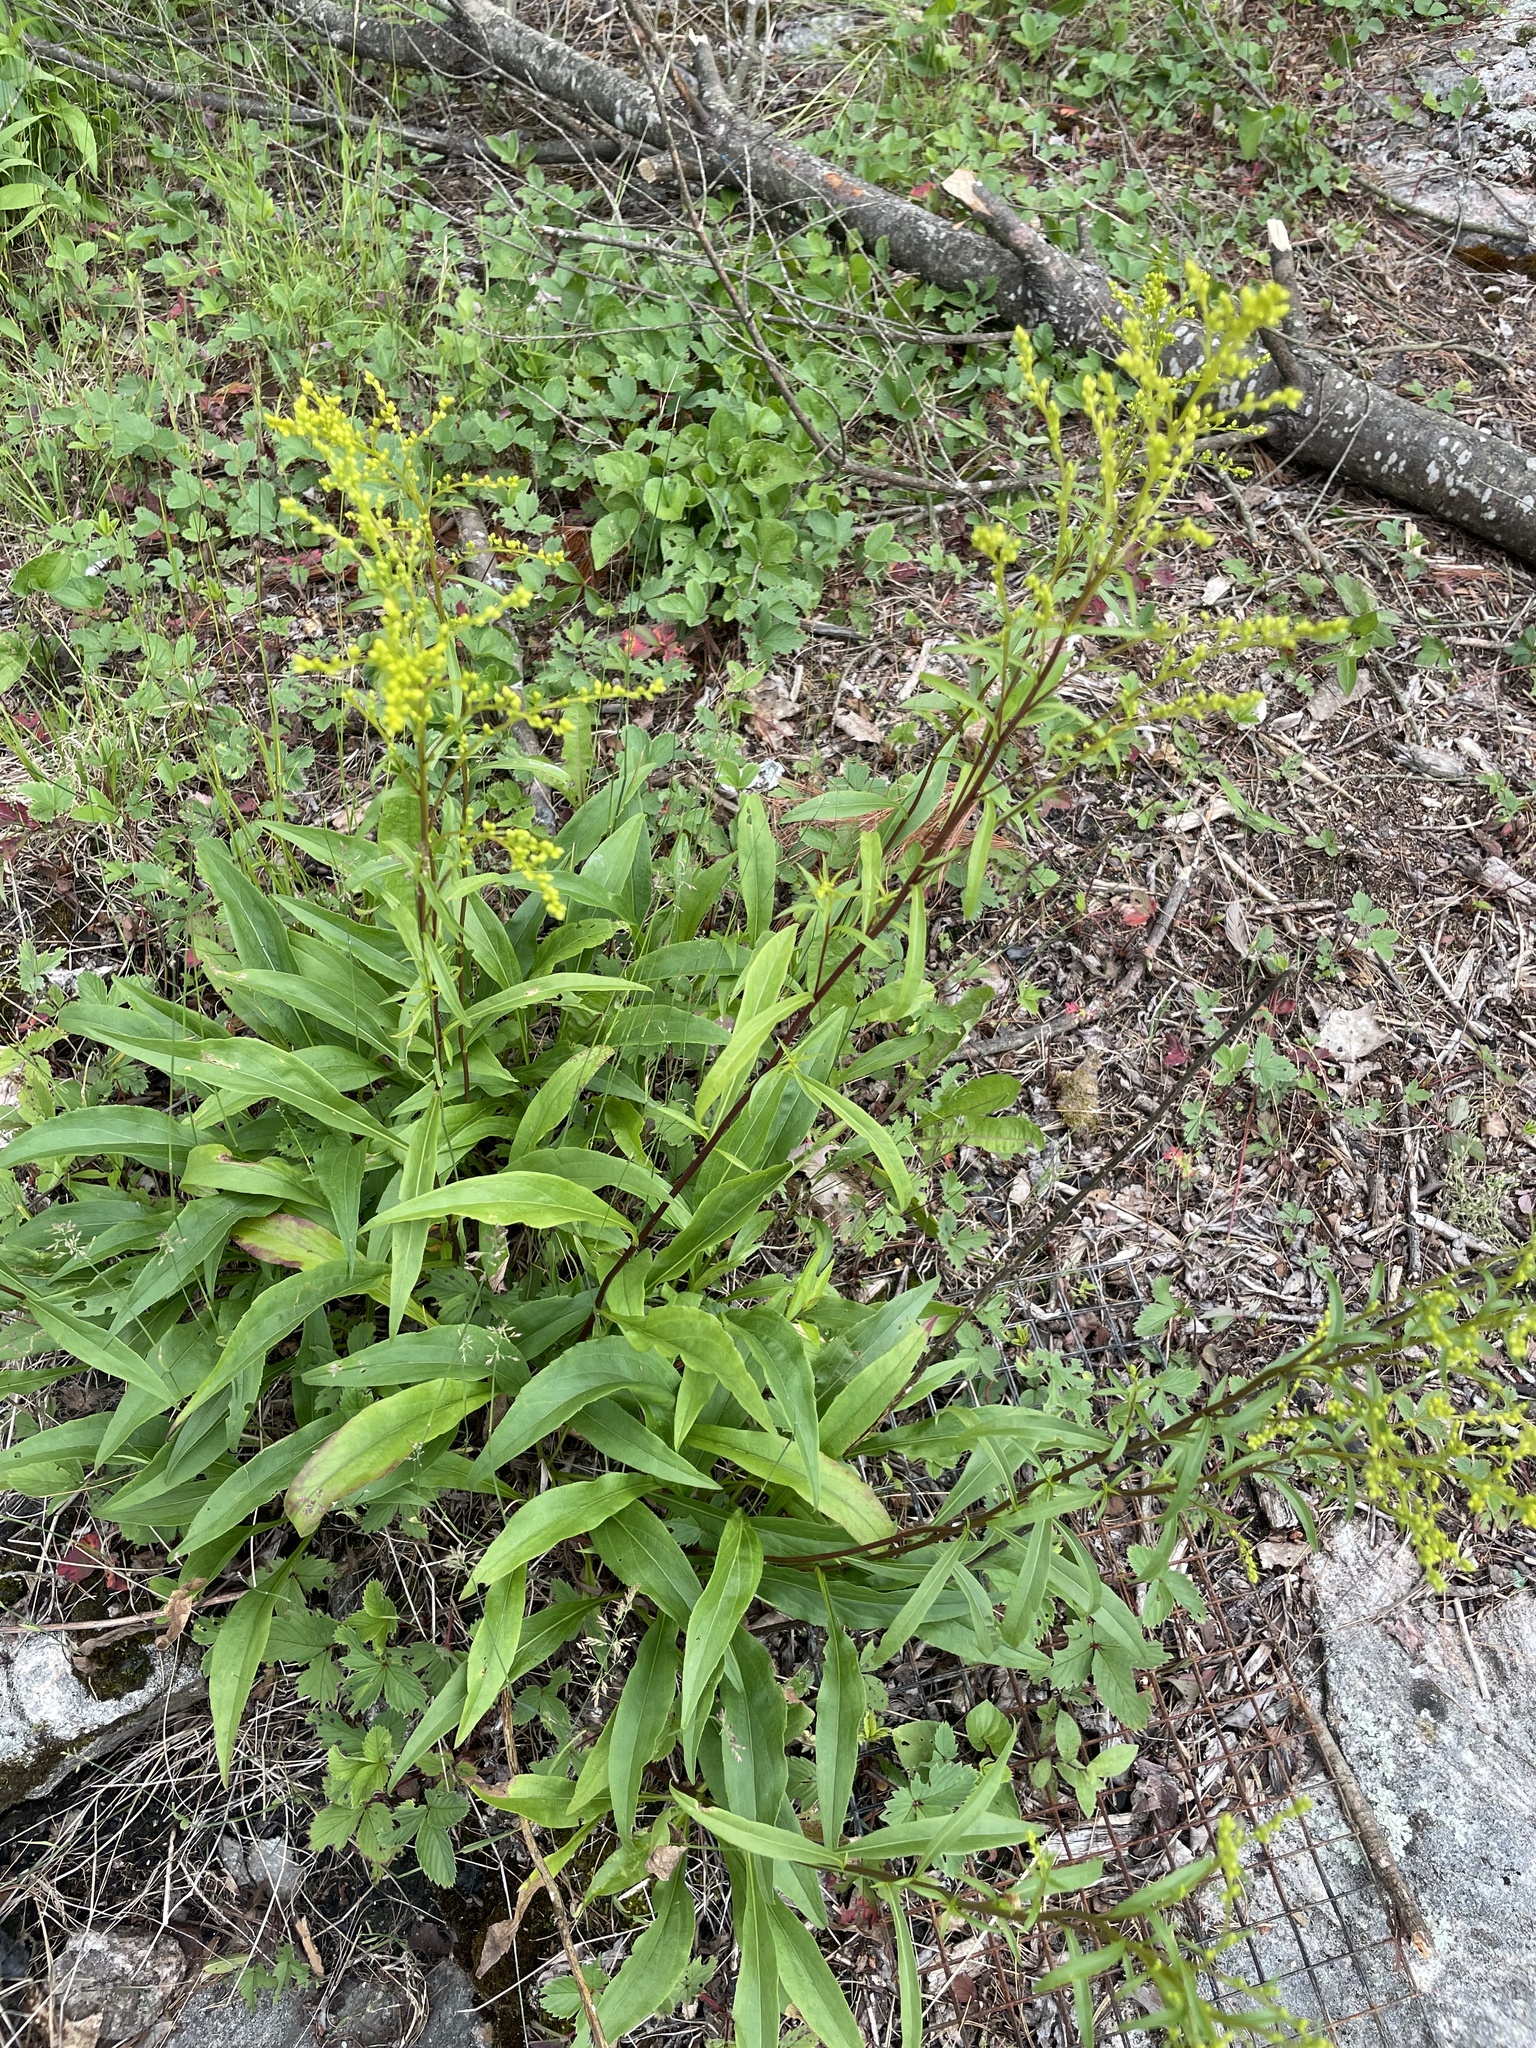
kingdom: Plantae
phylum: Tracheophyta
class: Magnoliopsida
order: Asterales
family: Asteraceae
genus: Solidago
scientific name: Solidago juncea
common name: Early goldenrod
